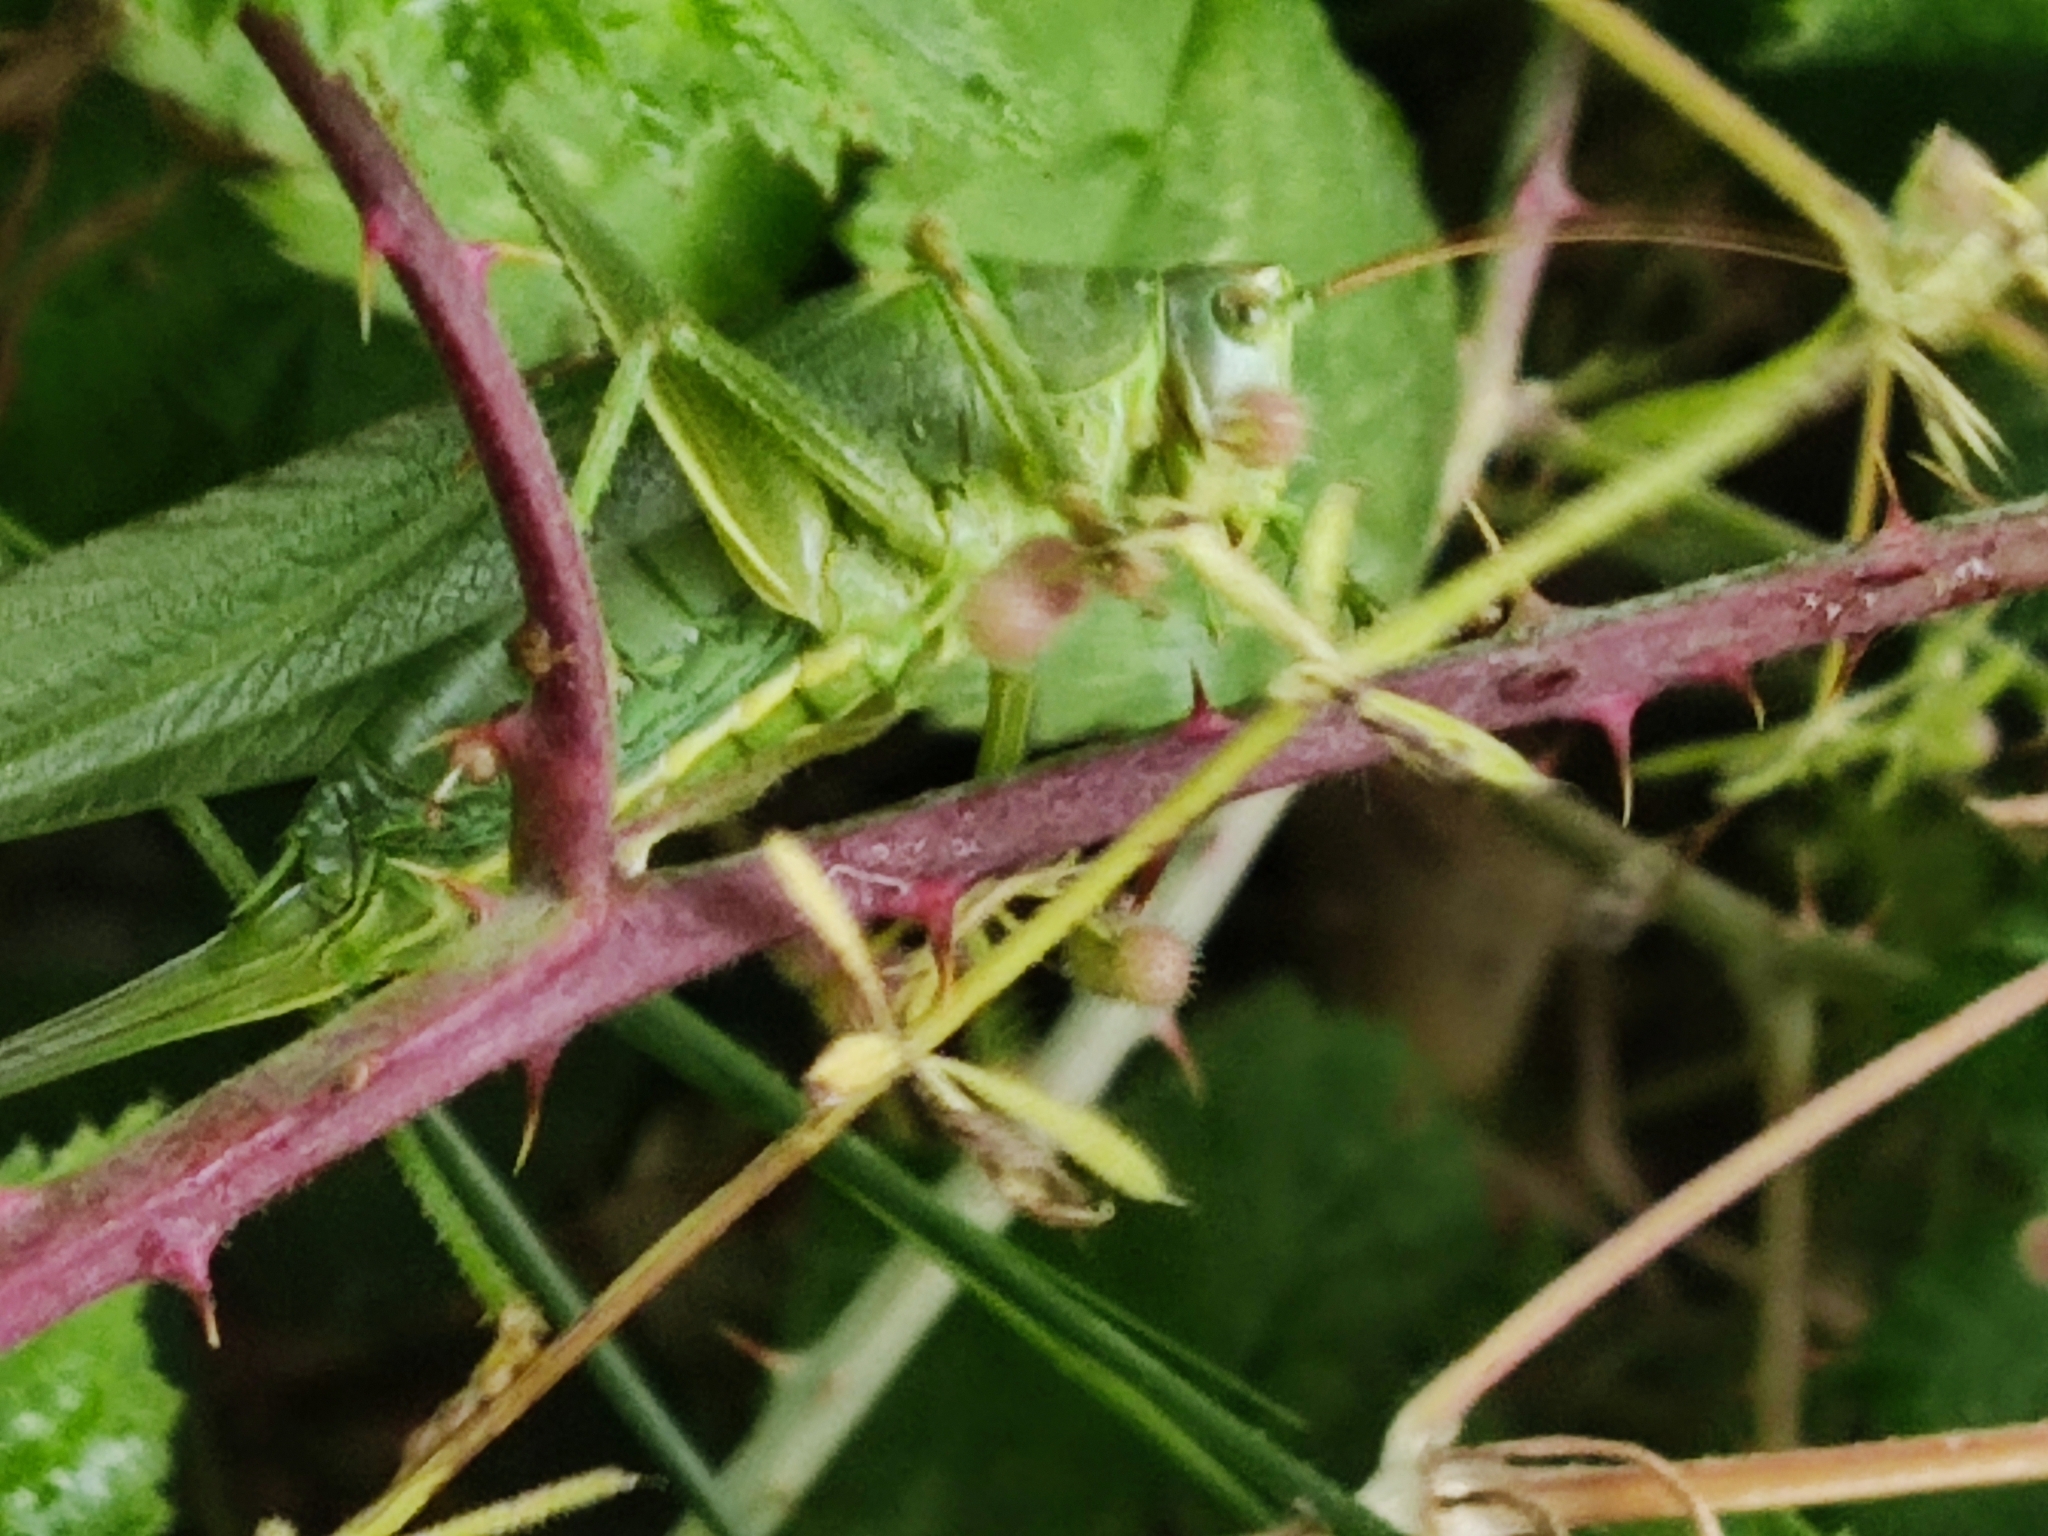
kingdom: Animalia
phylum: Arthropoda
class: Insecta
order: Orthoptera
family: Tettigoniidae
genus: Tettigonia
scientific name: Tettigonia viridissima
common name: Great green bush-cricket
